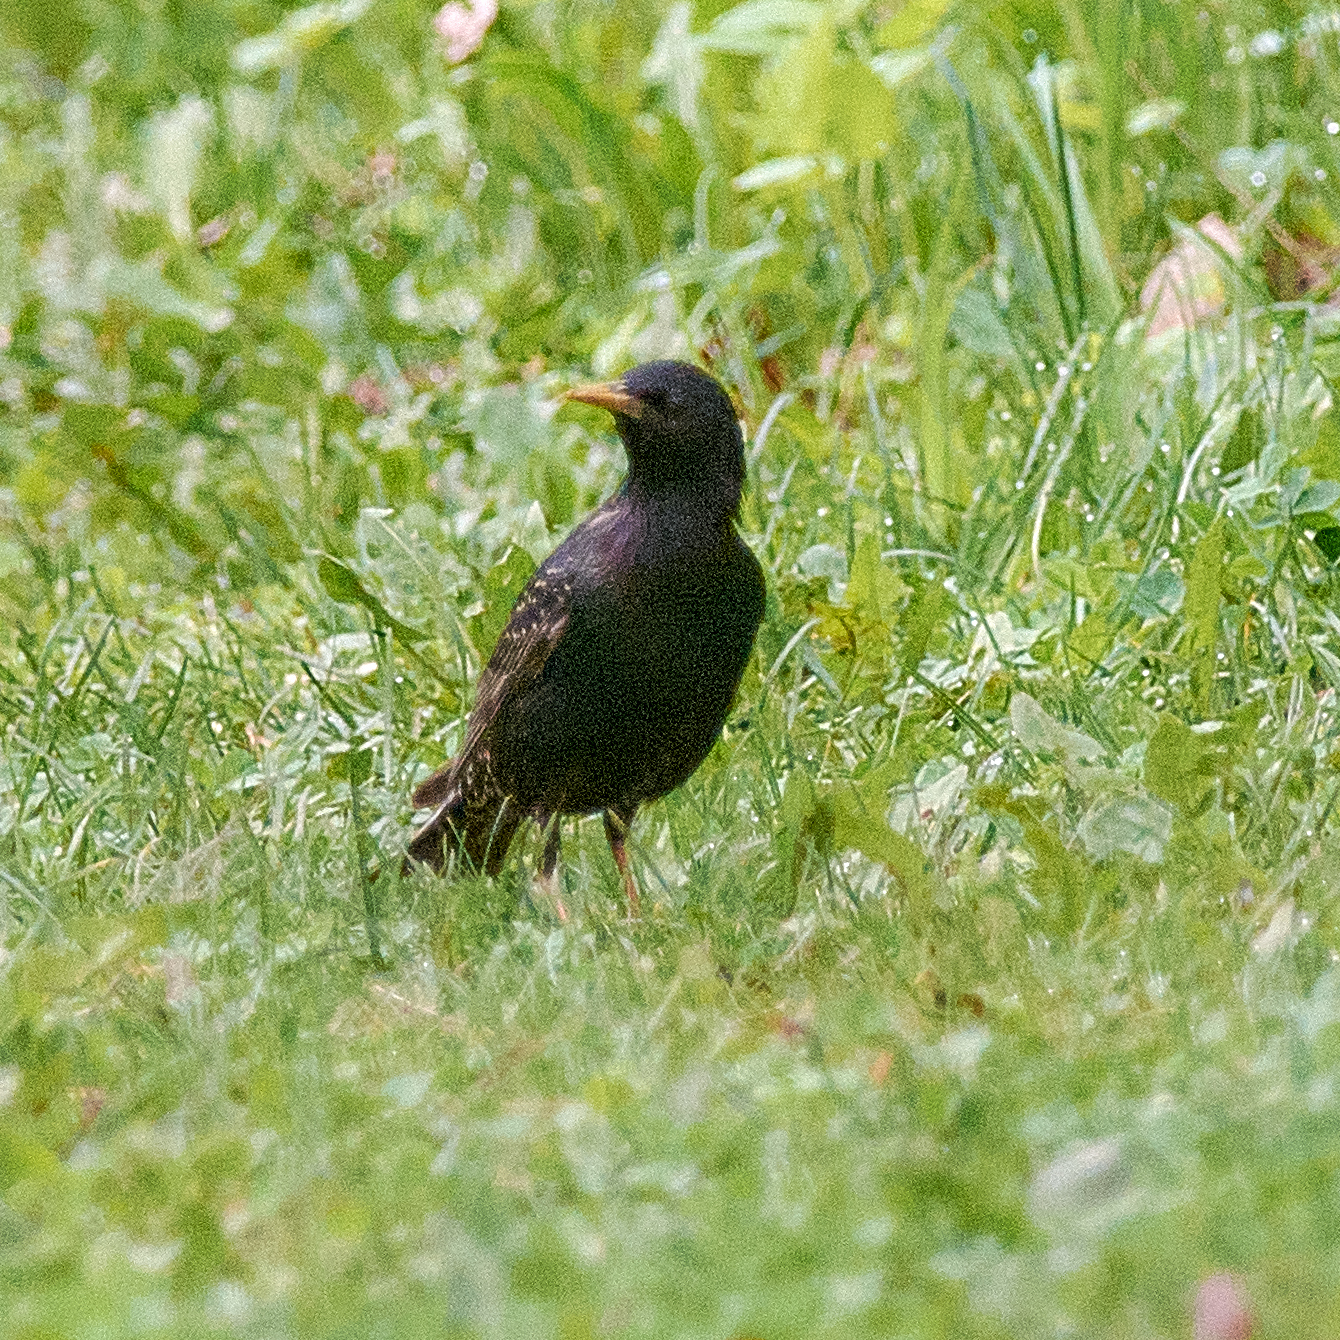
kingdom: Animalia
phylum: Chordata
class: Aves
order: Passeriformes
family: Sturnidae
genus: Sturnus
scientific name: Sturnus vulgaris
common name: Common starling
